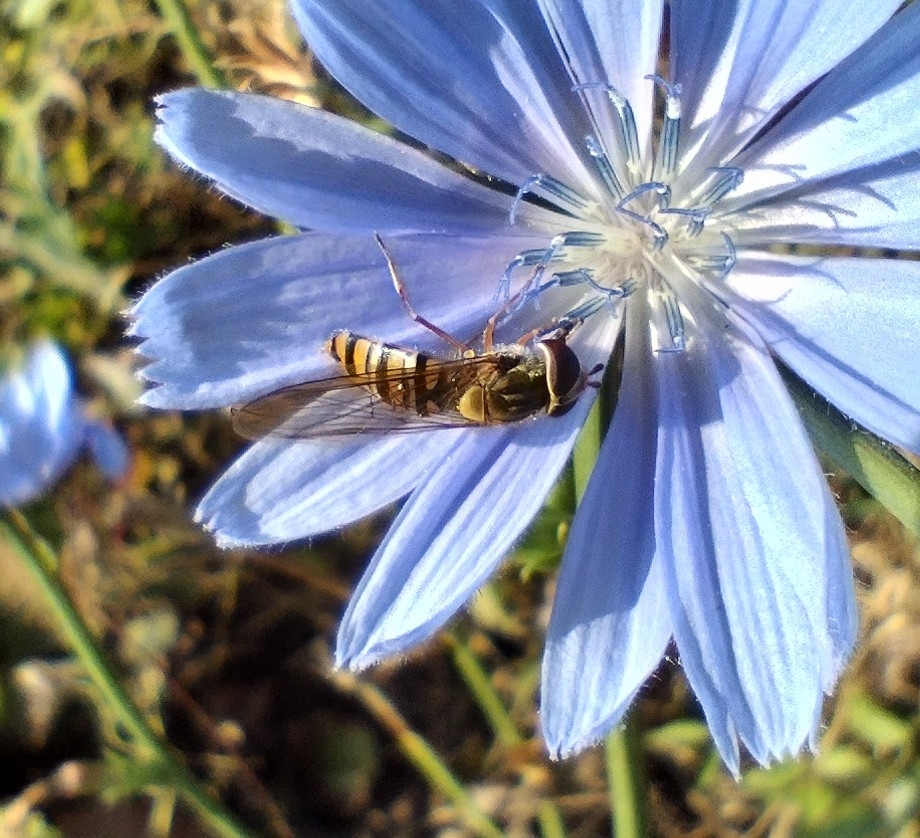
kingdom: Animalia
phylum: Arthropoda
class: Insecta
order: Diptera
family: Syrphidae
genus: Episyrphus
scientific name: Episyrphus balteatus
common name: Marmalade hoverfly
